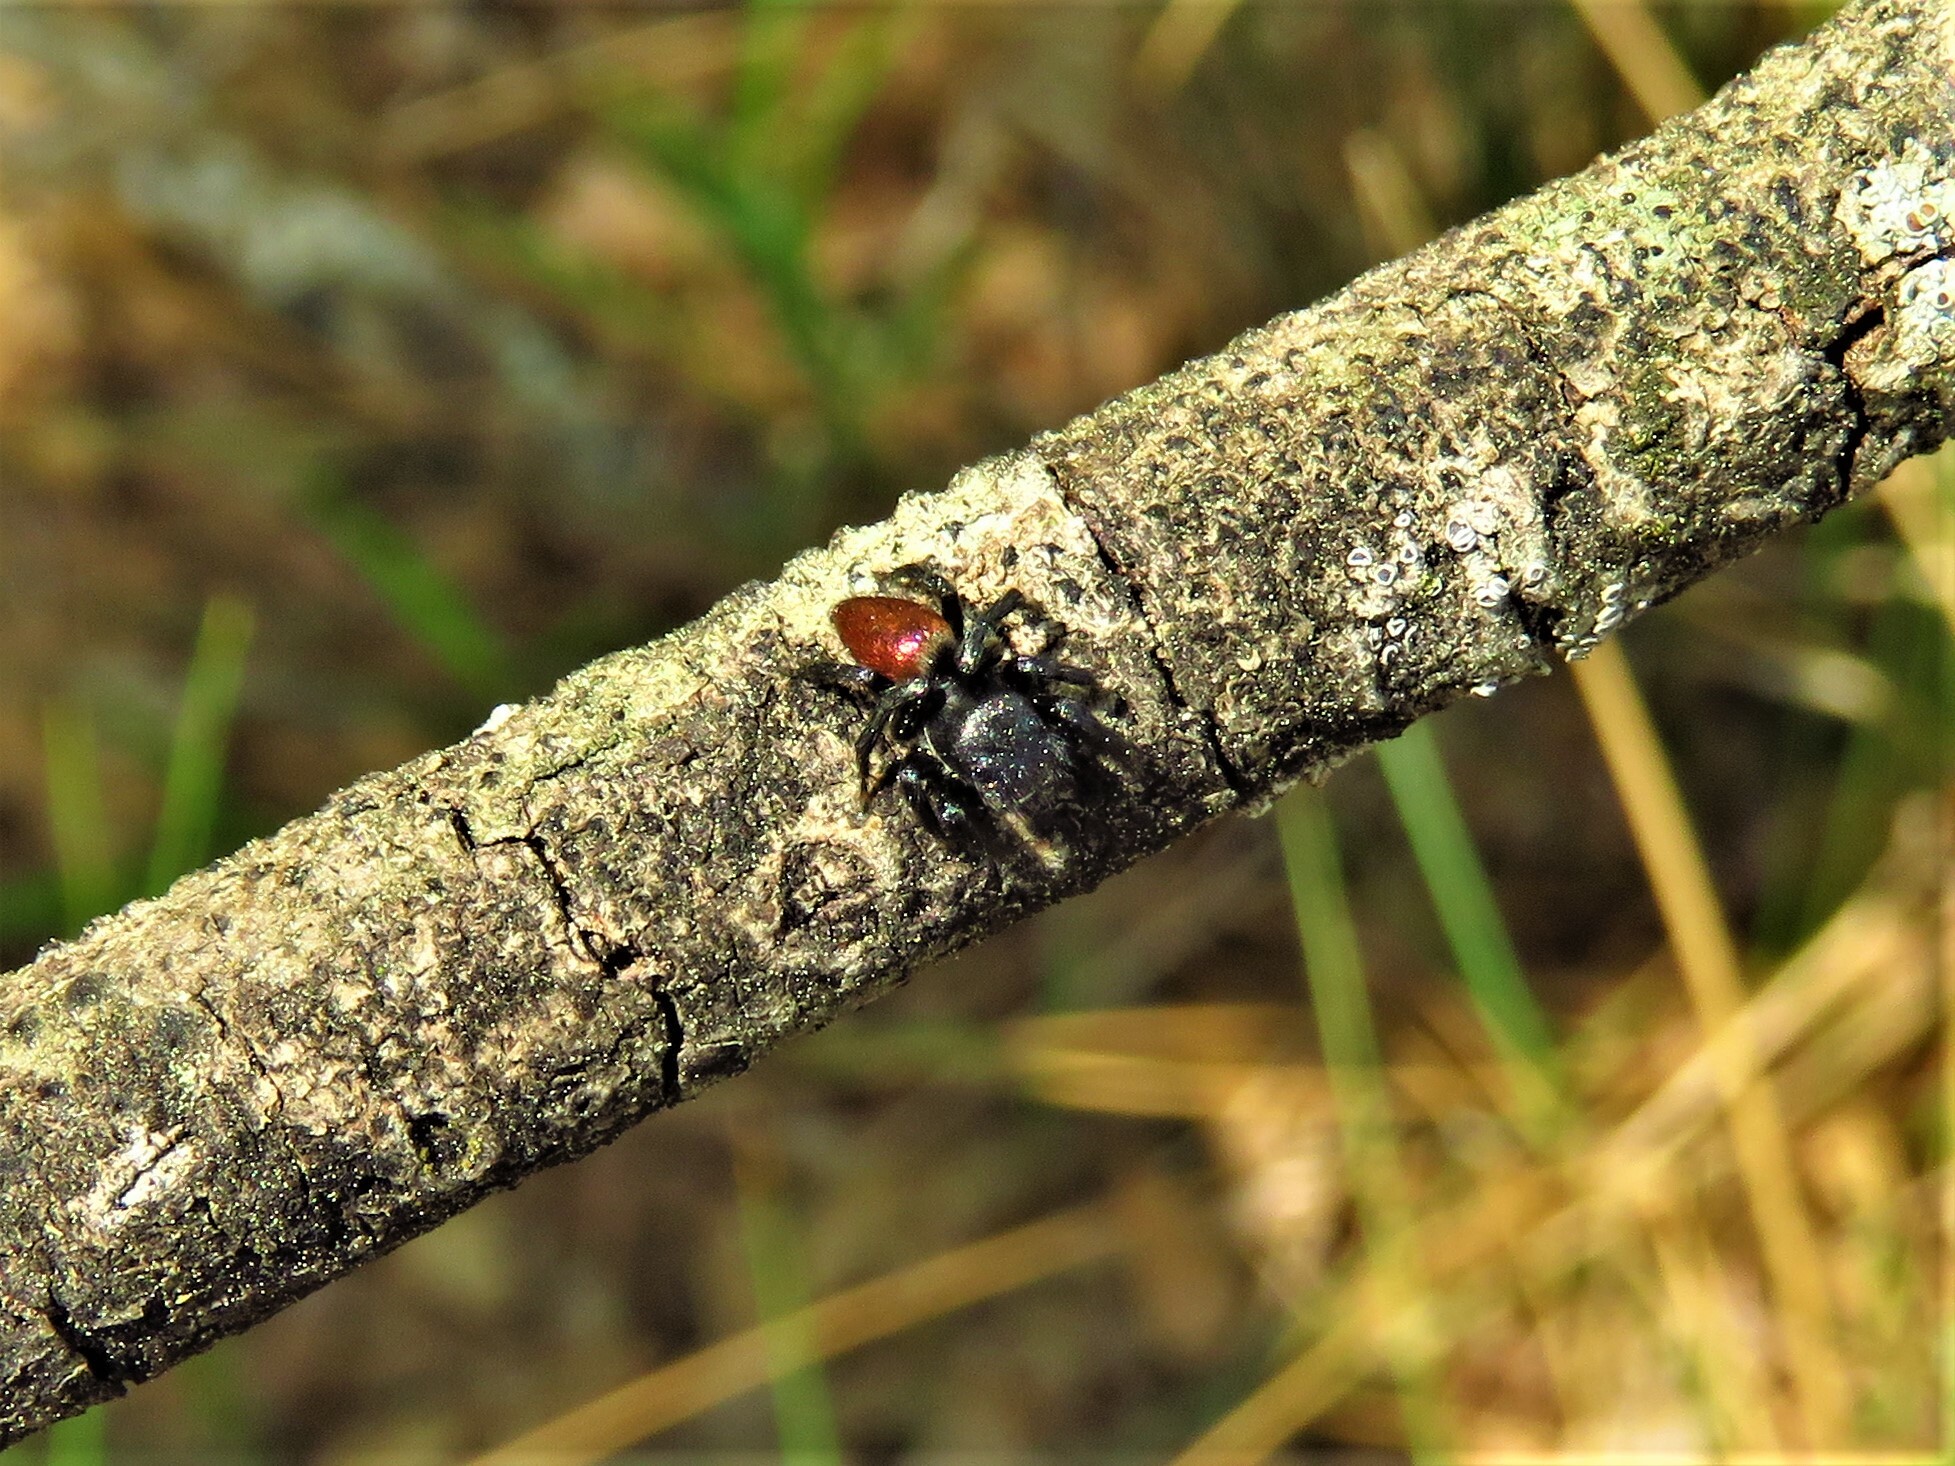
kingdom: Animalia
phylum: Arthropoda
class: Arachnida
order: Araneae
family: Salticidae
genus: Habronattus
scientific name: Habronattus decorus
